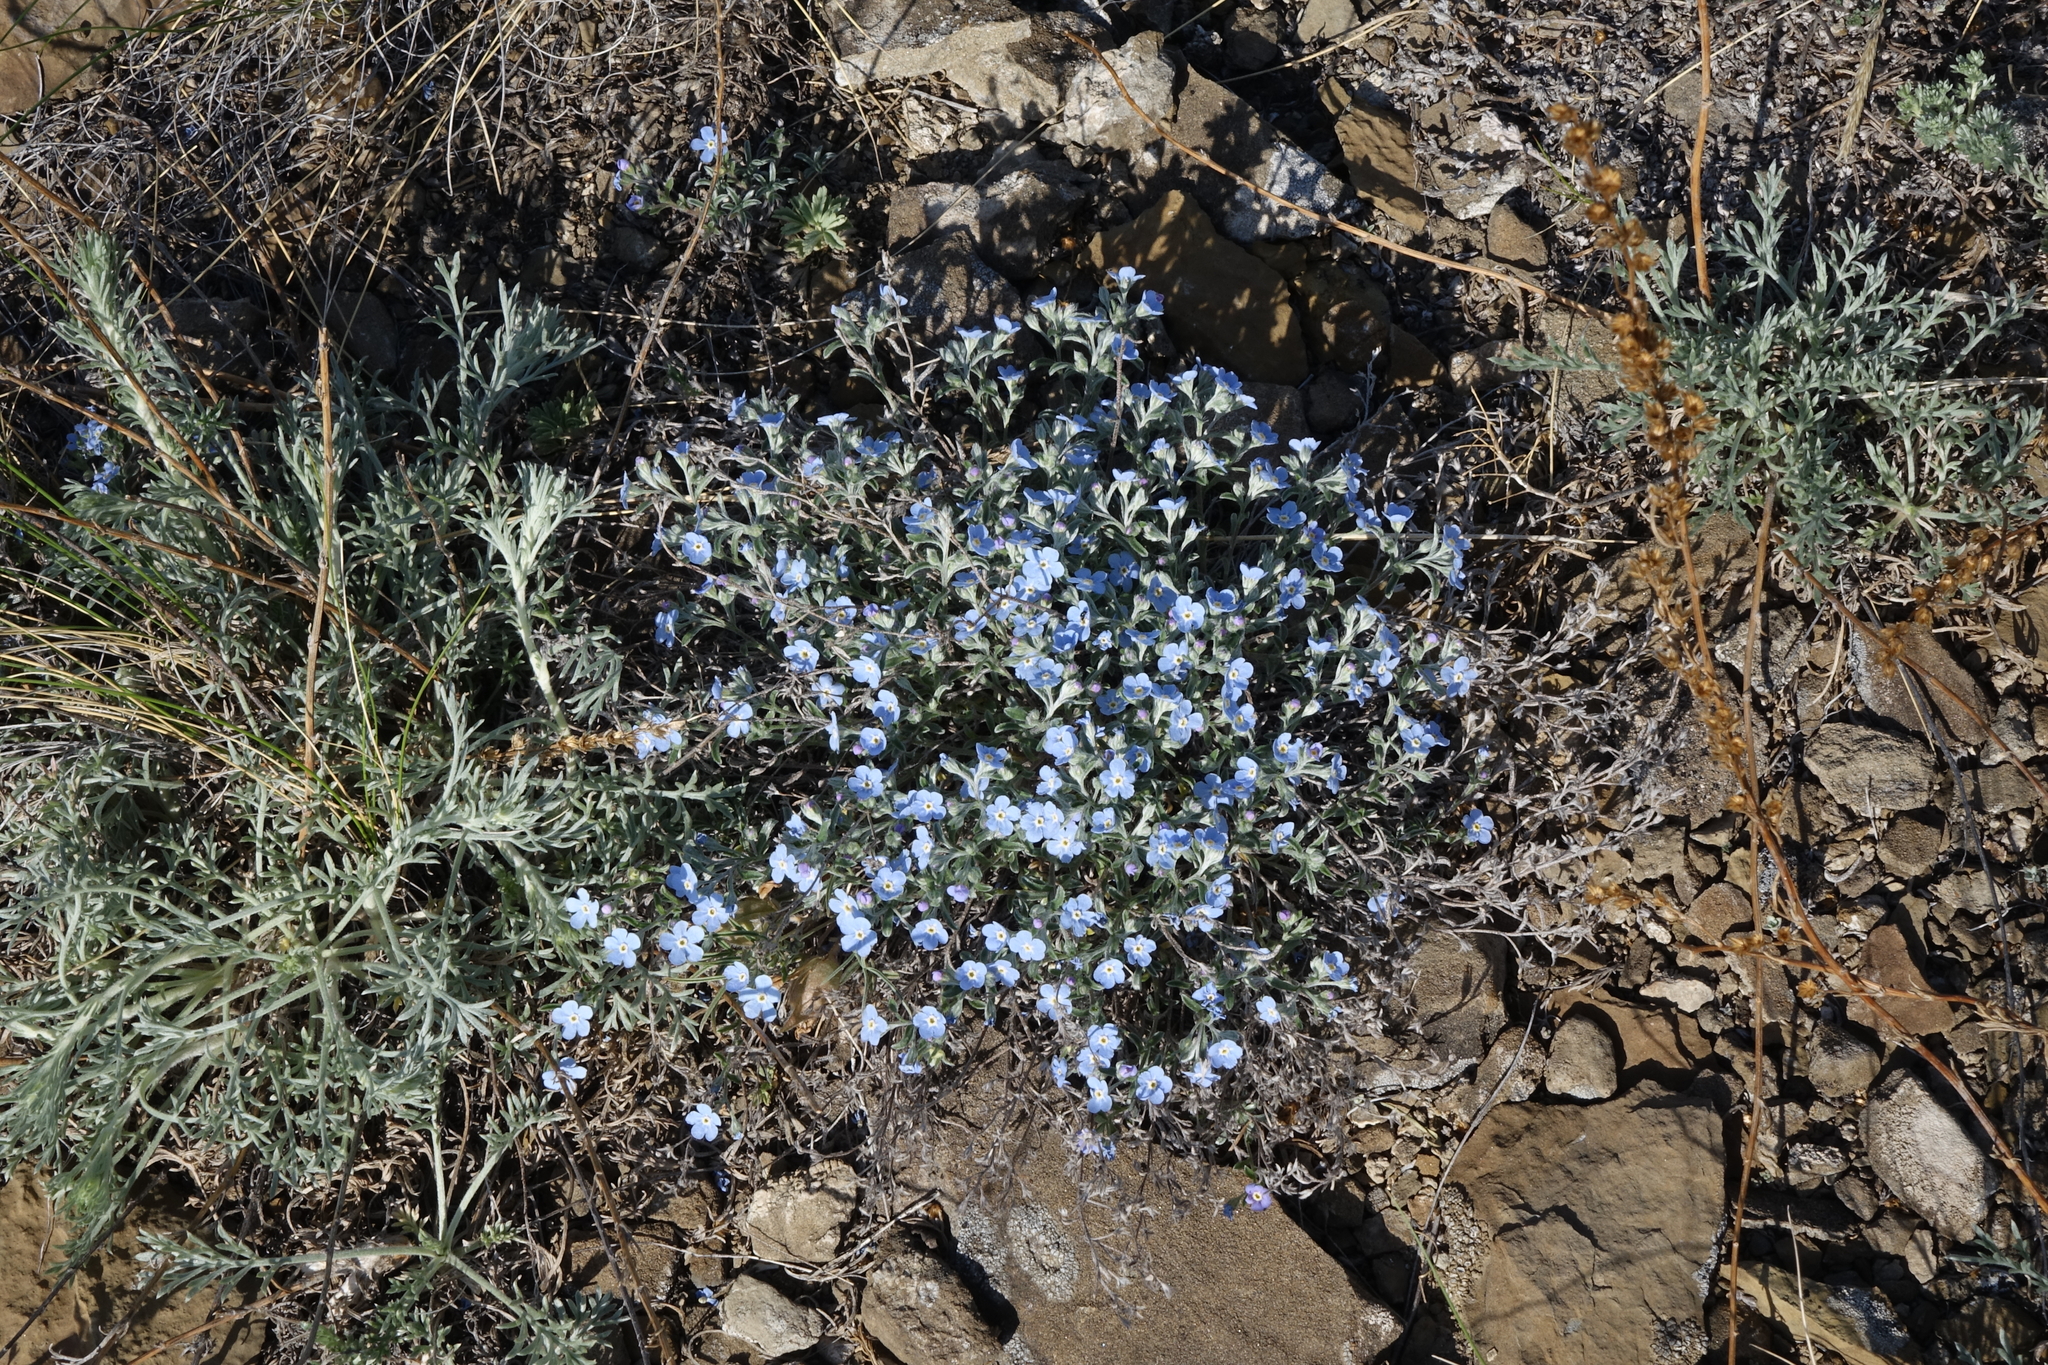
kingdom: Plantae
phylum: Tracheophyta
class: Magnoliopsida
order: Boraginales
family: Boraginaceae
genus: Eritrichium
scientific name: Eritrichium rupestre
